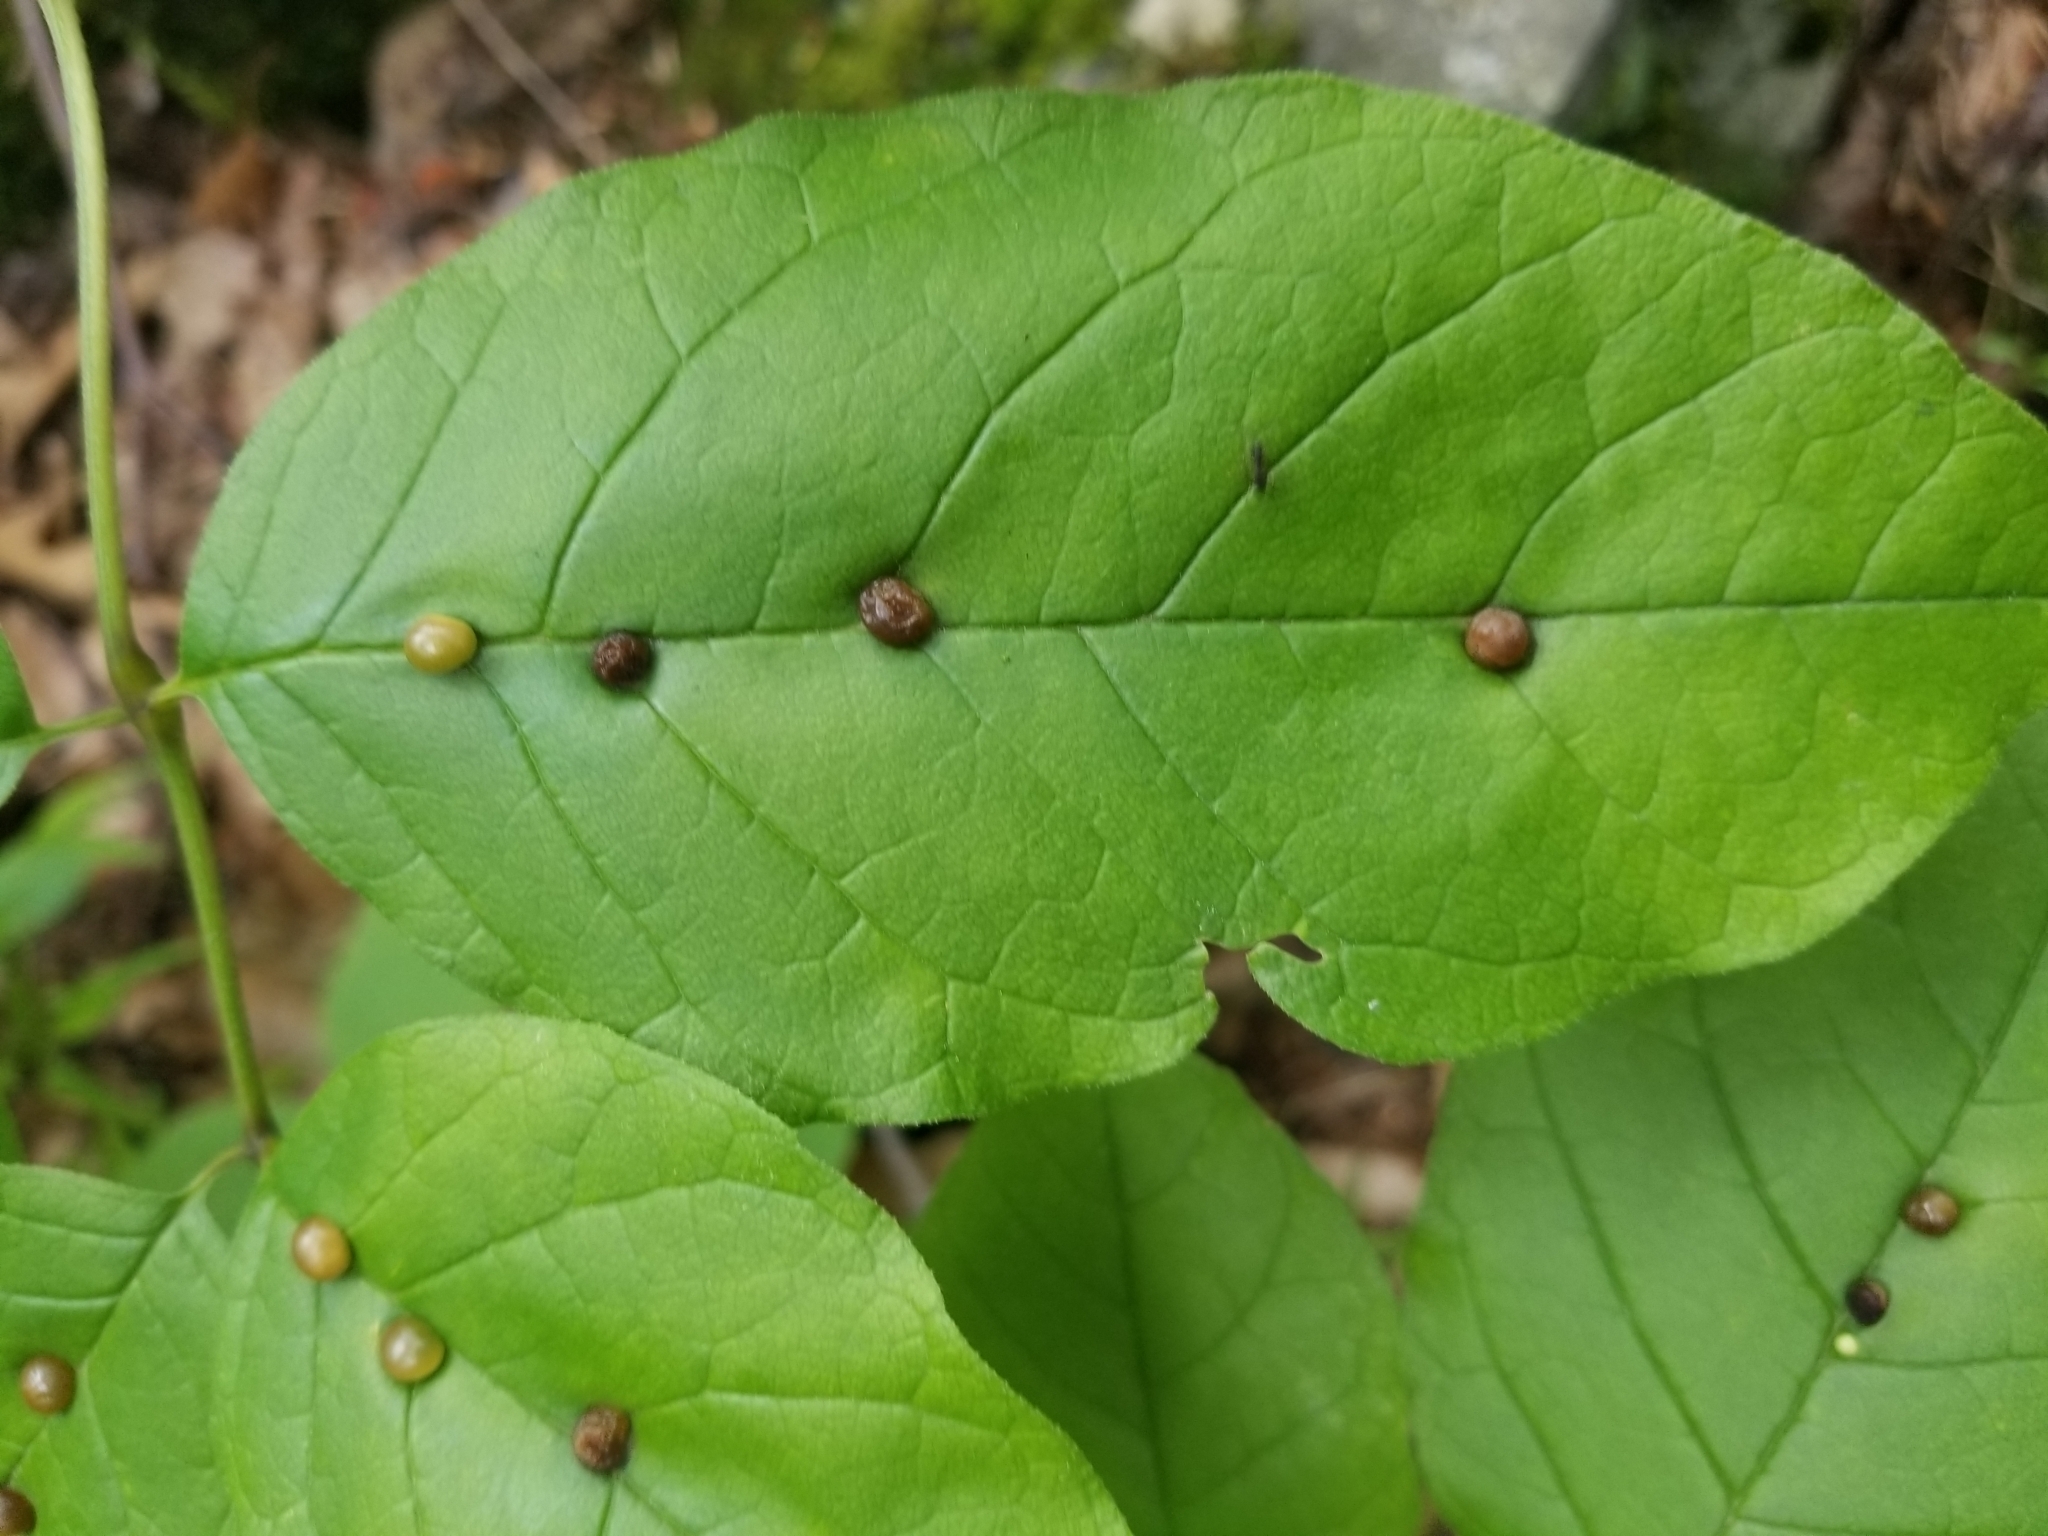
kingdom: Animalia
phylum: Arthropoda
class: Insecta
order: Diptera
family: Cecidomyiidae
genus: Dasineura
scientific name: Dasineura pellex
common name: Ash bullet gall midge
